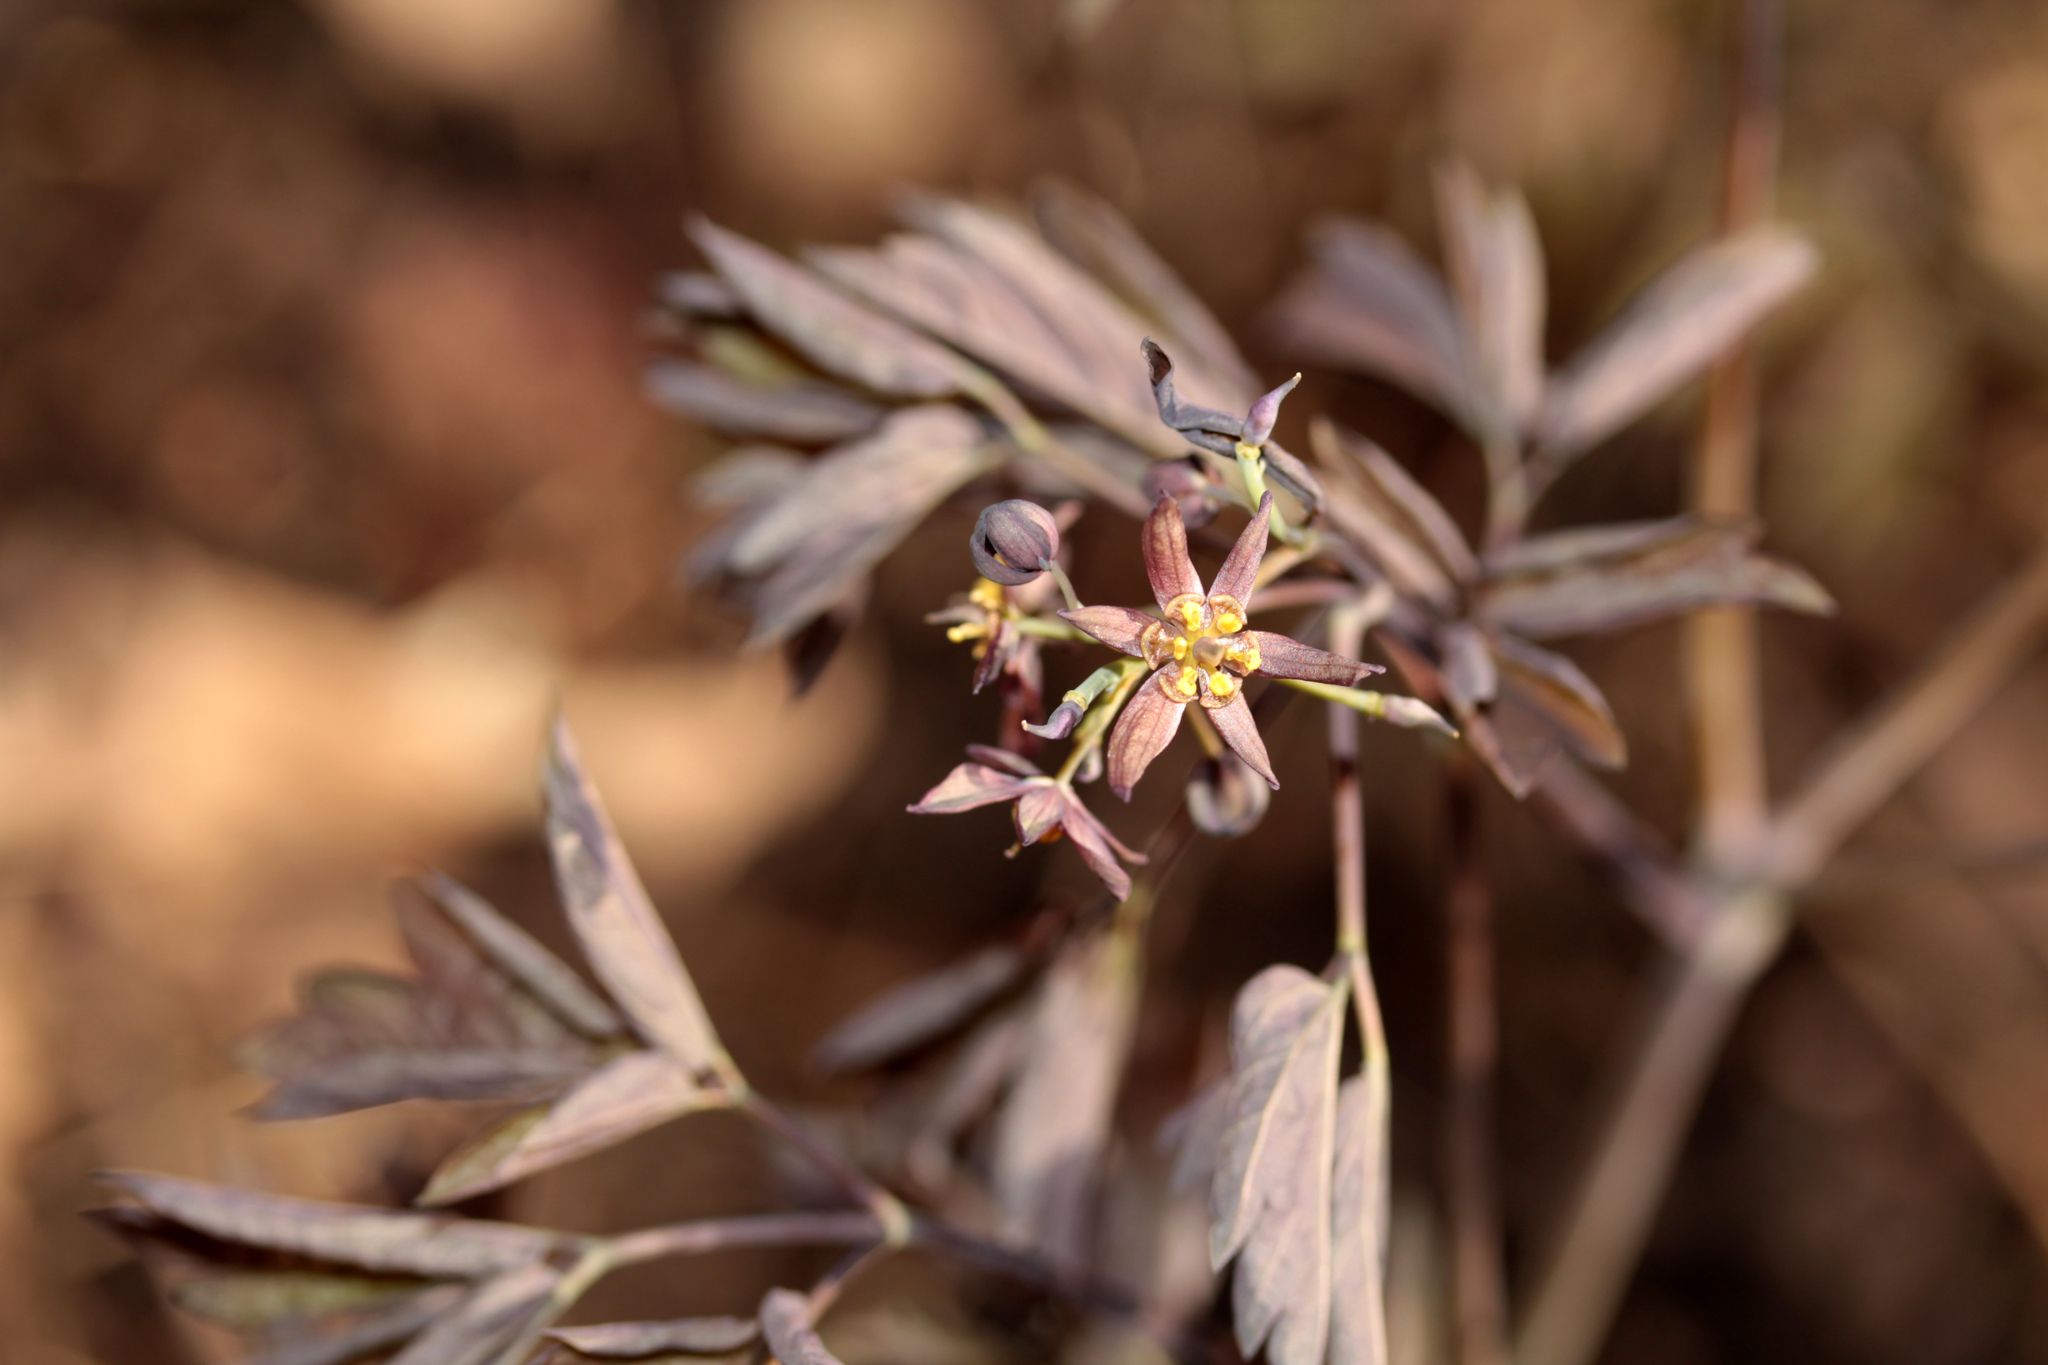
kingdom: Plantae
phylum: Tracheophyta
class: Magnoliopsida
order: Ranunculales
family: Berberidaceae
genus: Caulophyllum
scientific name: Caulophyllum giganteum
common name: Blue cohosh
